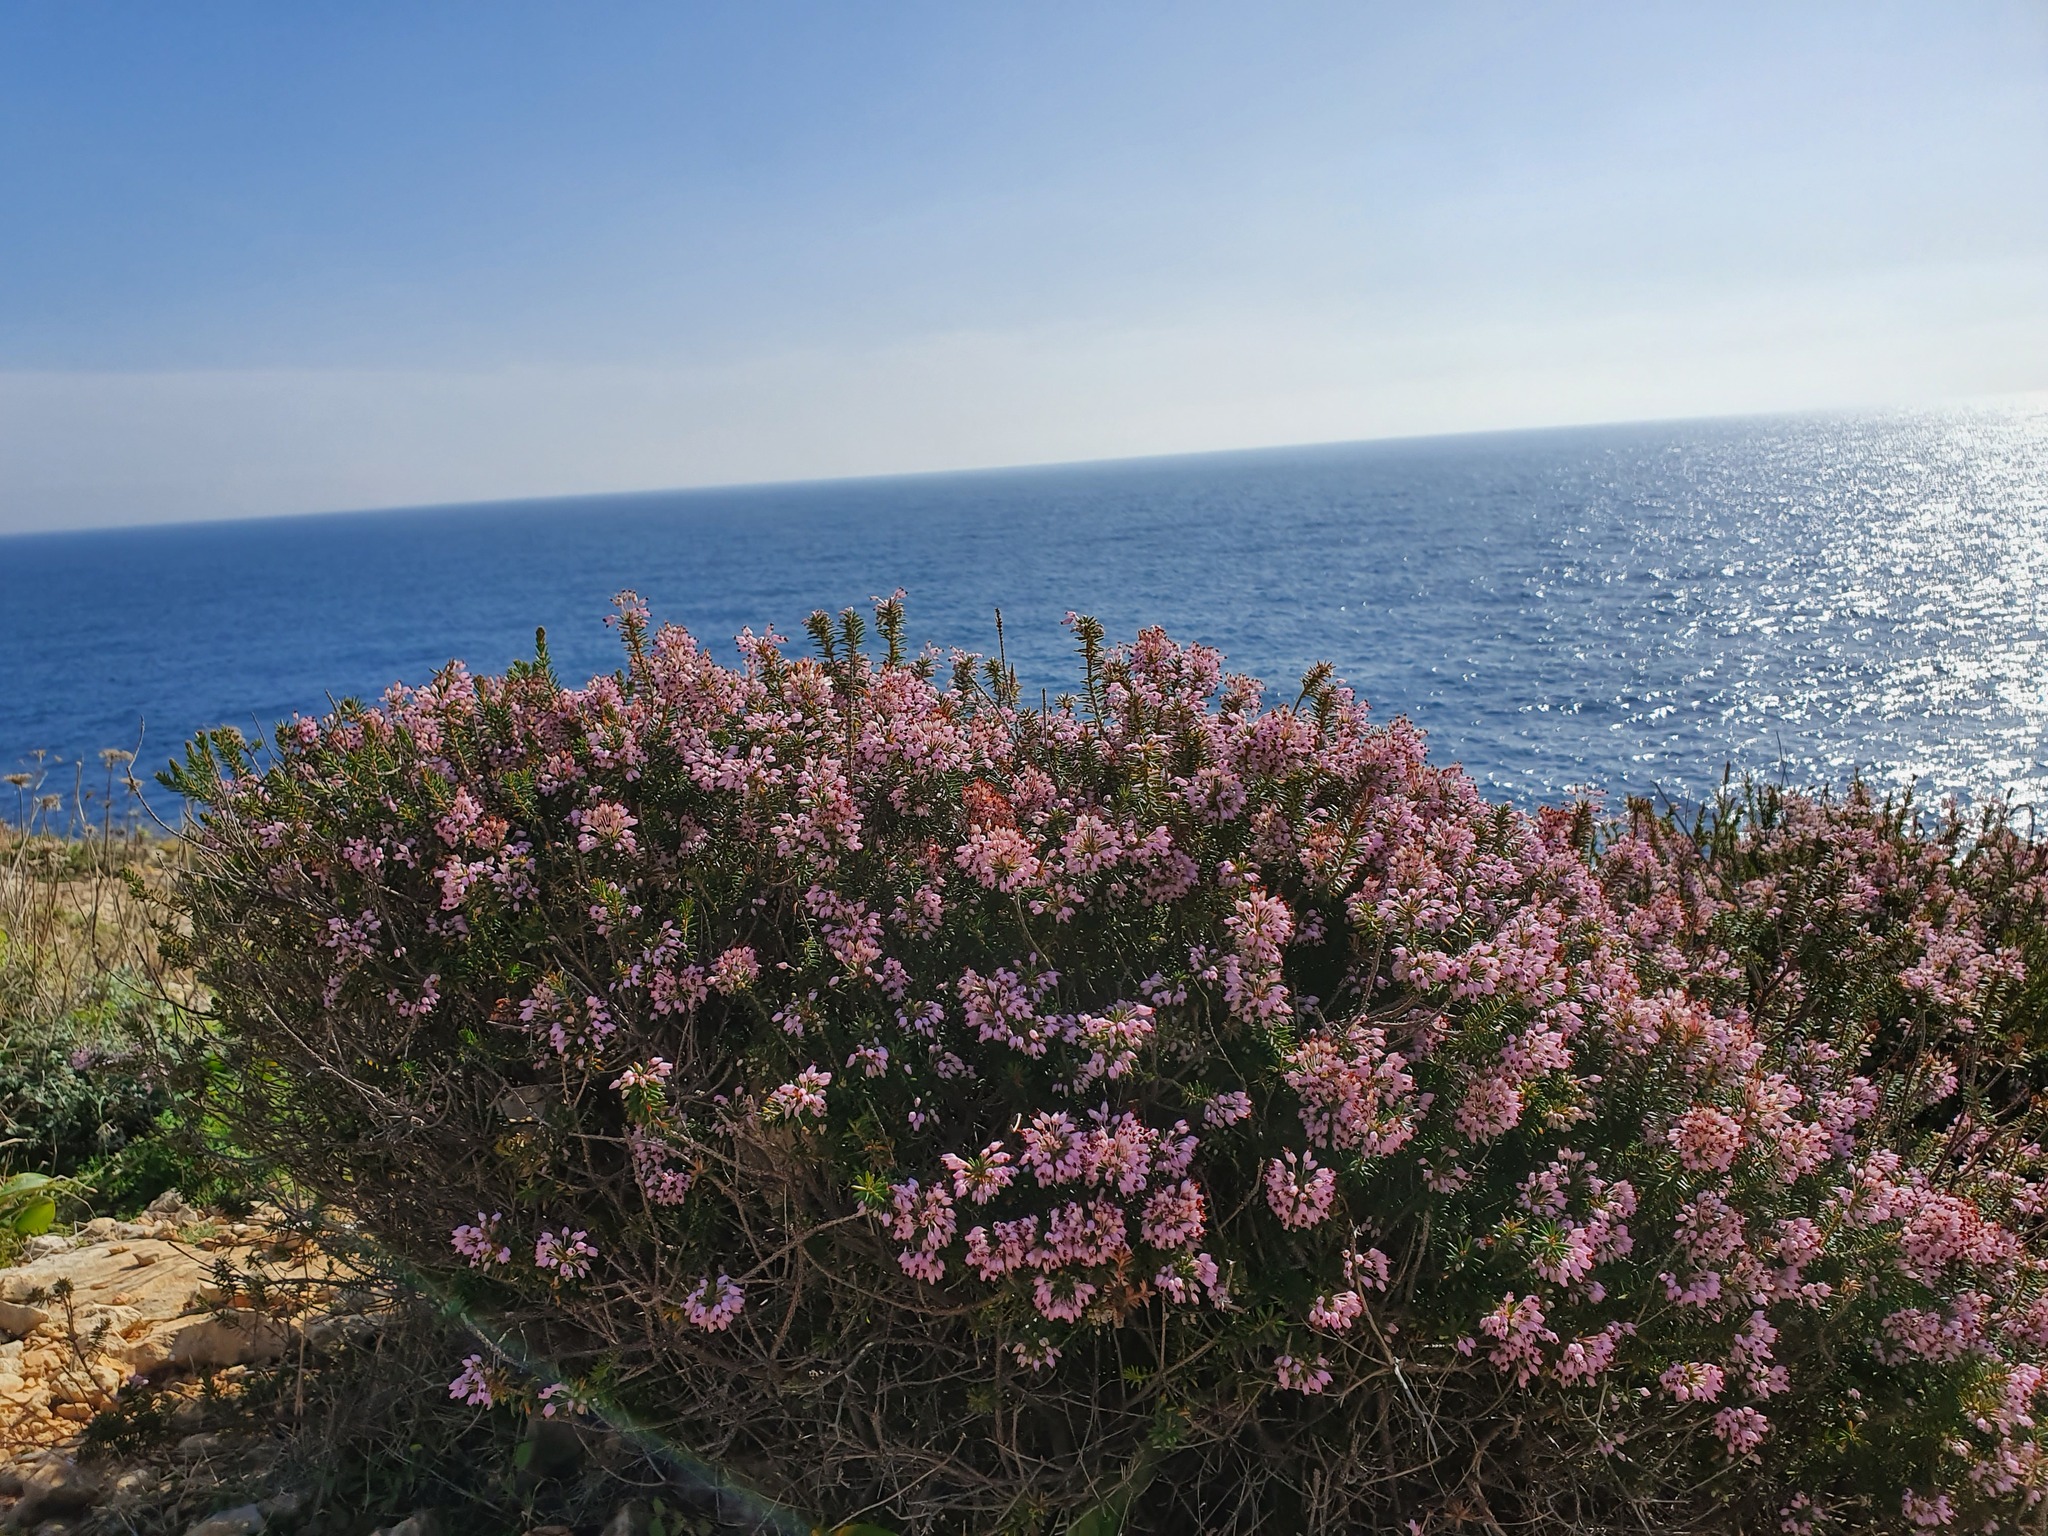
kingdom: Plantae
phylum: Tracheophyta
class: Magnoliopsida
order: Ericales
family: Ericaceae
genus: Erica
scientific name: Erica multiflora
